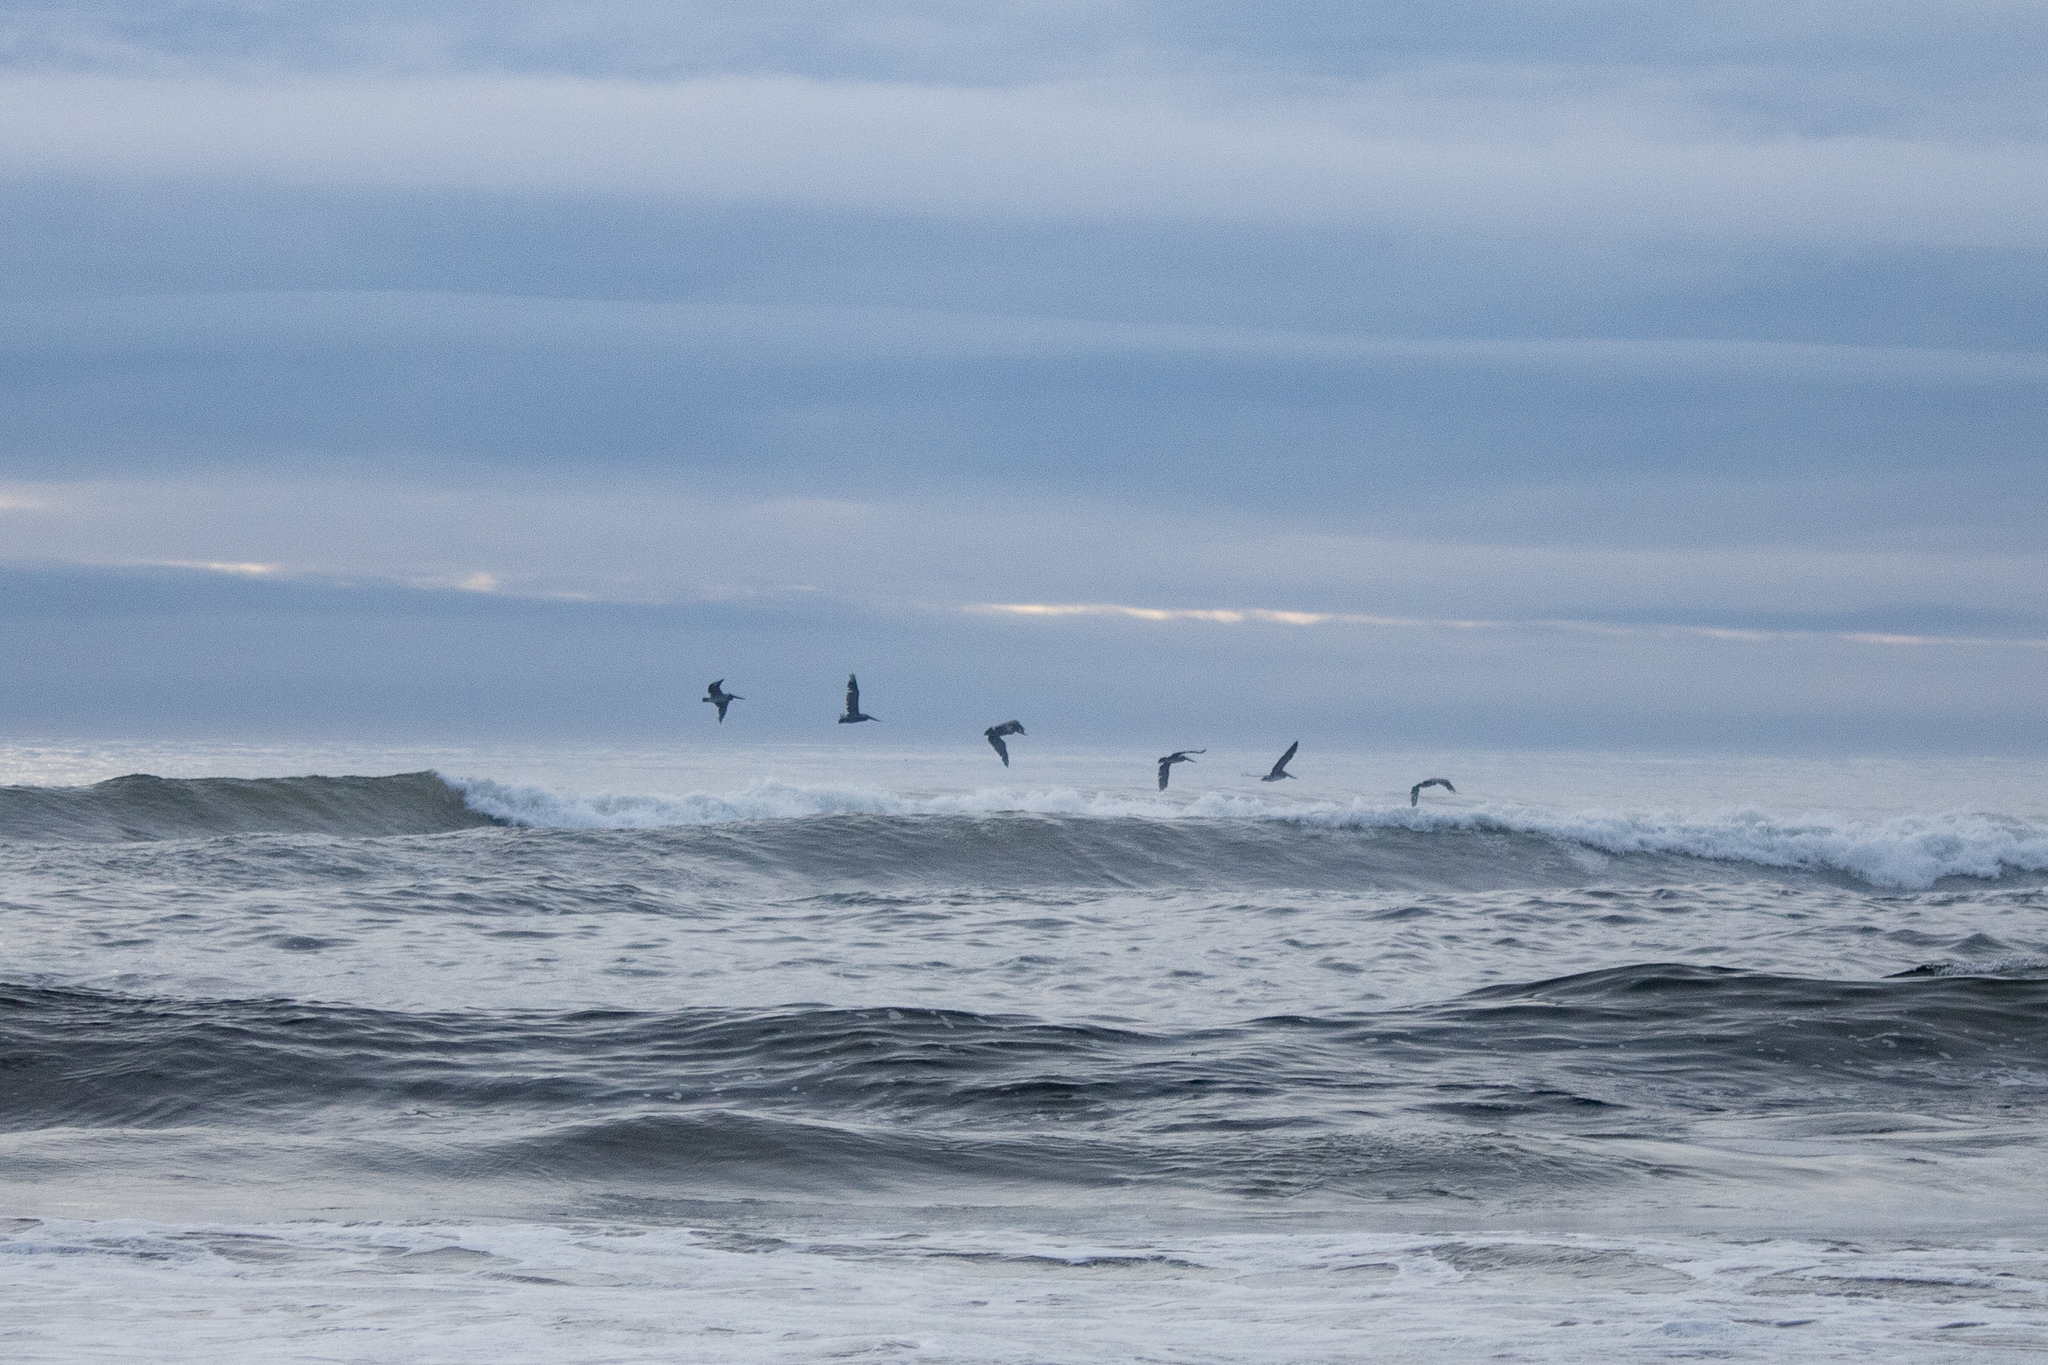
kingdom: Animalia
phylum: Chordata
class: Aves
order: Pelecaniformes
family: Pelecanidae
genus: Pelecanus
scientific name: Pelecanus occidentalis
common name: Brown pelican
